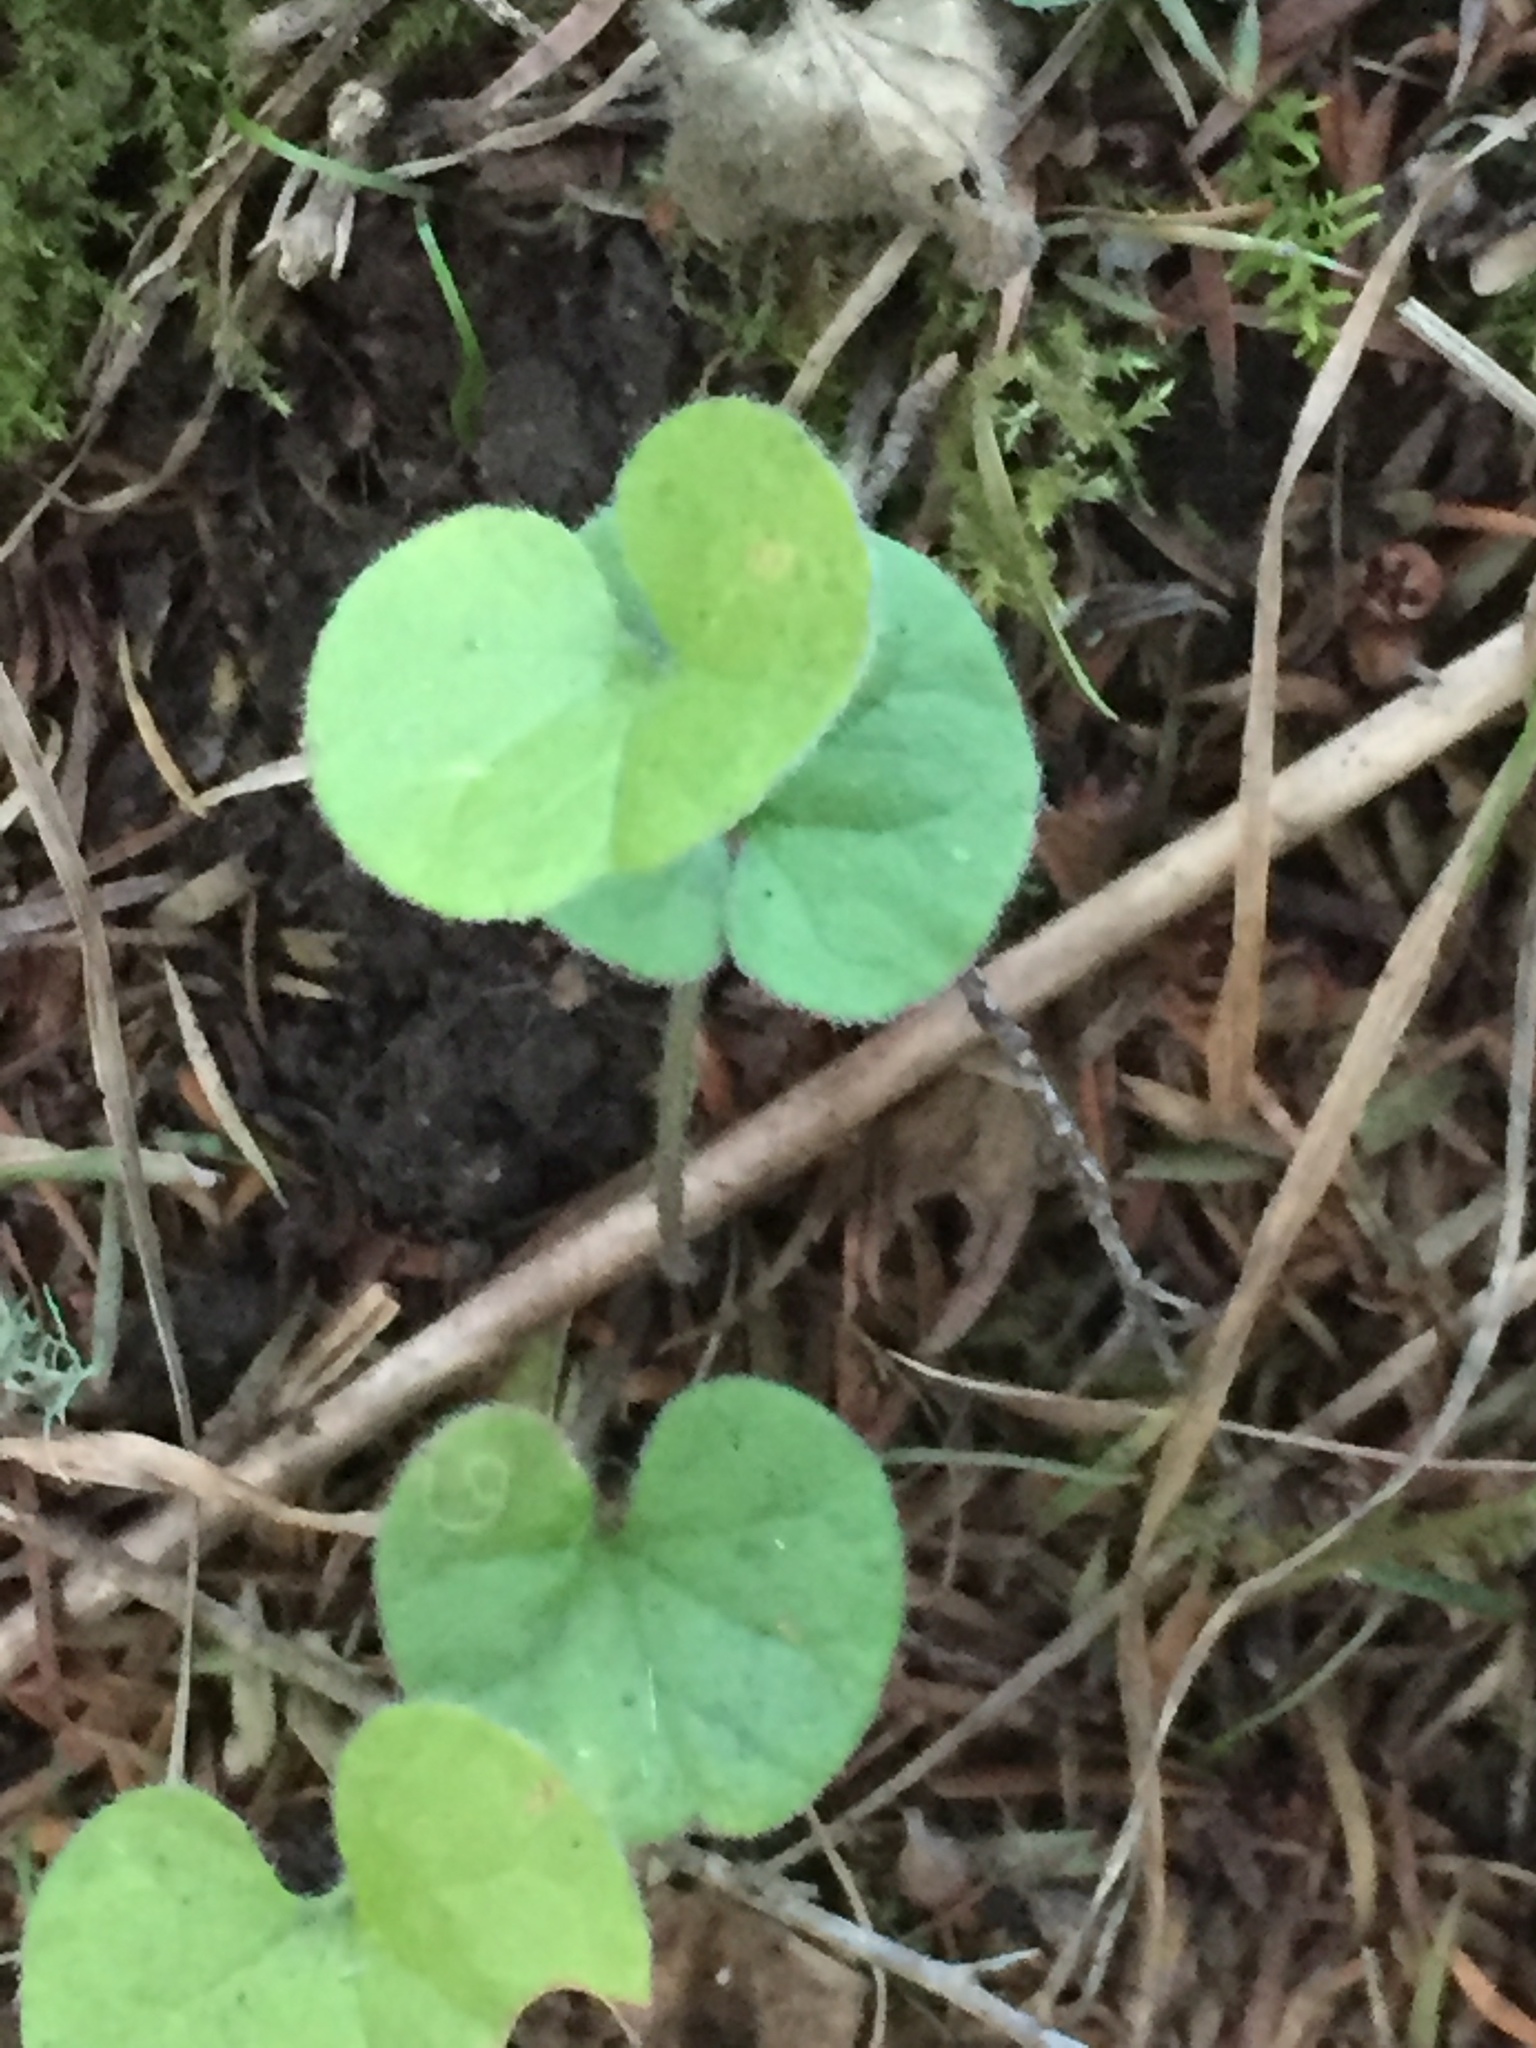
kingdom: Plantae
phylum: Tracheophyta
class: Magnoliopsida
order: Solanales
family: Convolvulaceae
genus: Dichondra
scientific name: Dichondra repens
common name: Kidneyweed
